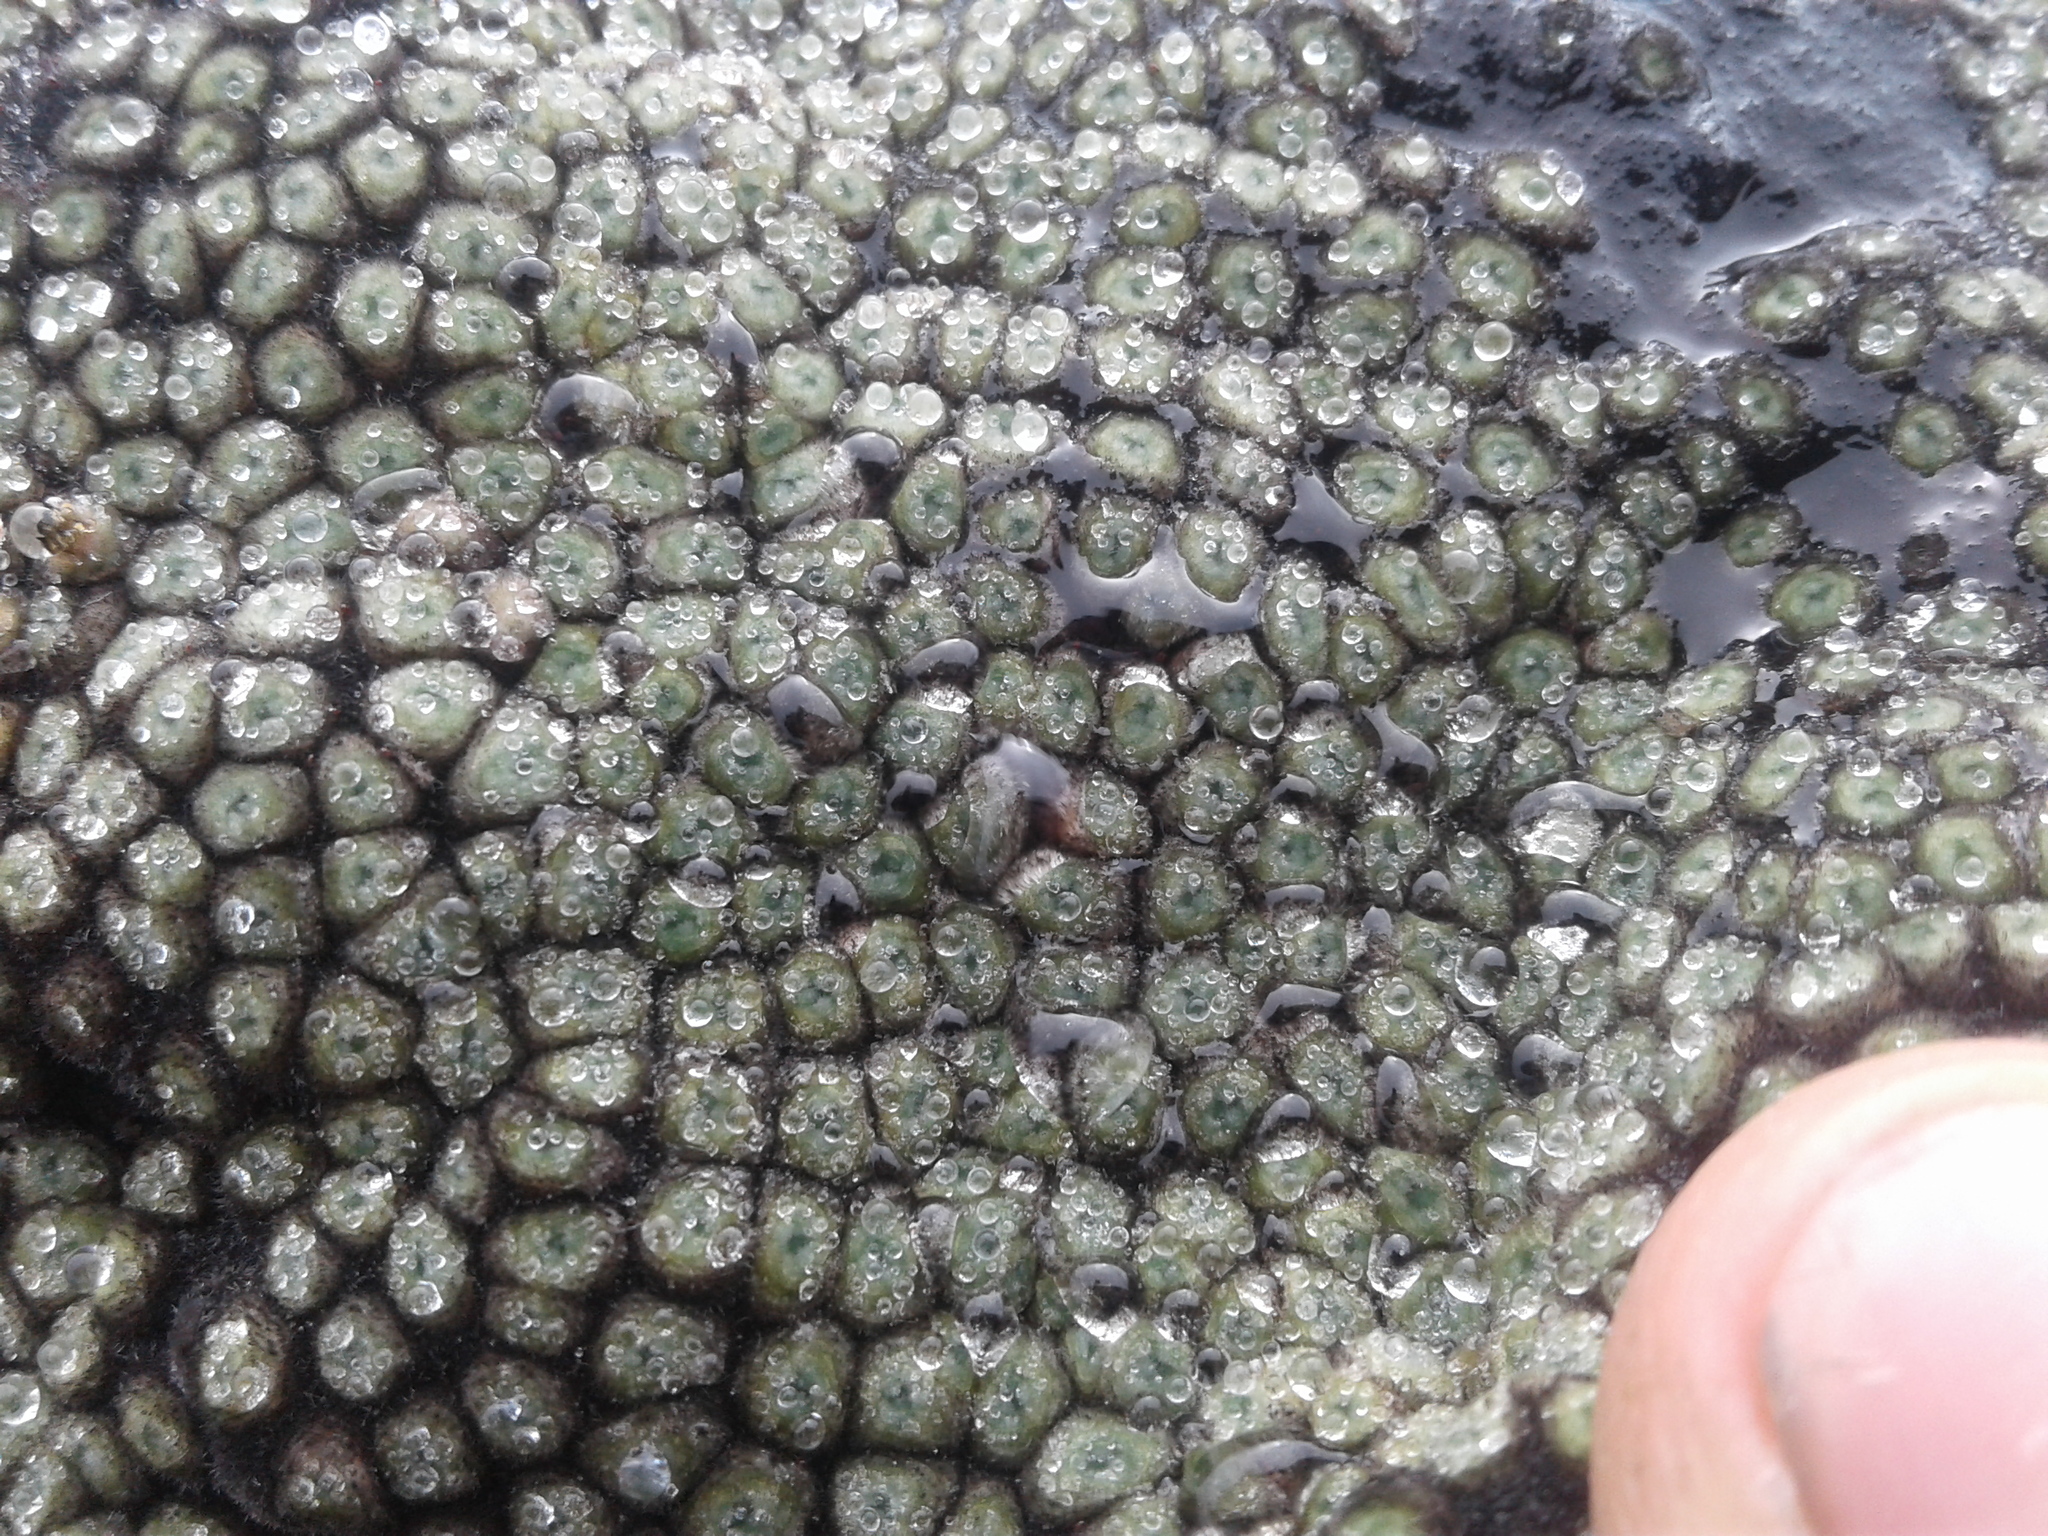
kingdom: Plantae
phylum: Tracheophyta
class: Magnoliopsida
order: Asterales
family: Asteraceae
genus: Raoulia
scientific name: Raoulia eximia
